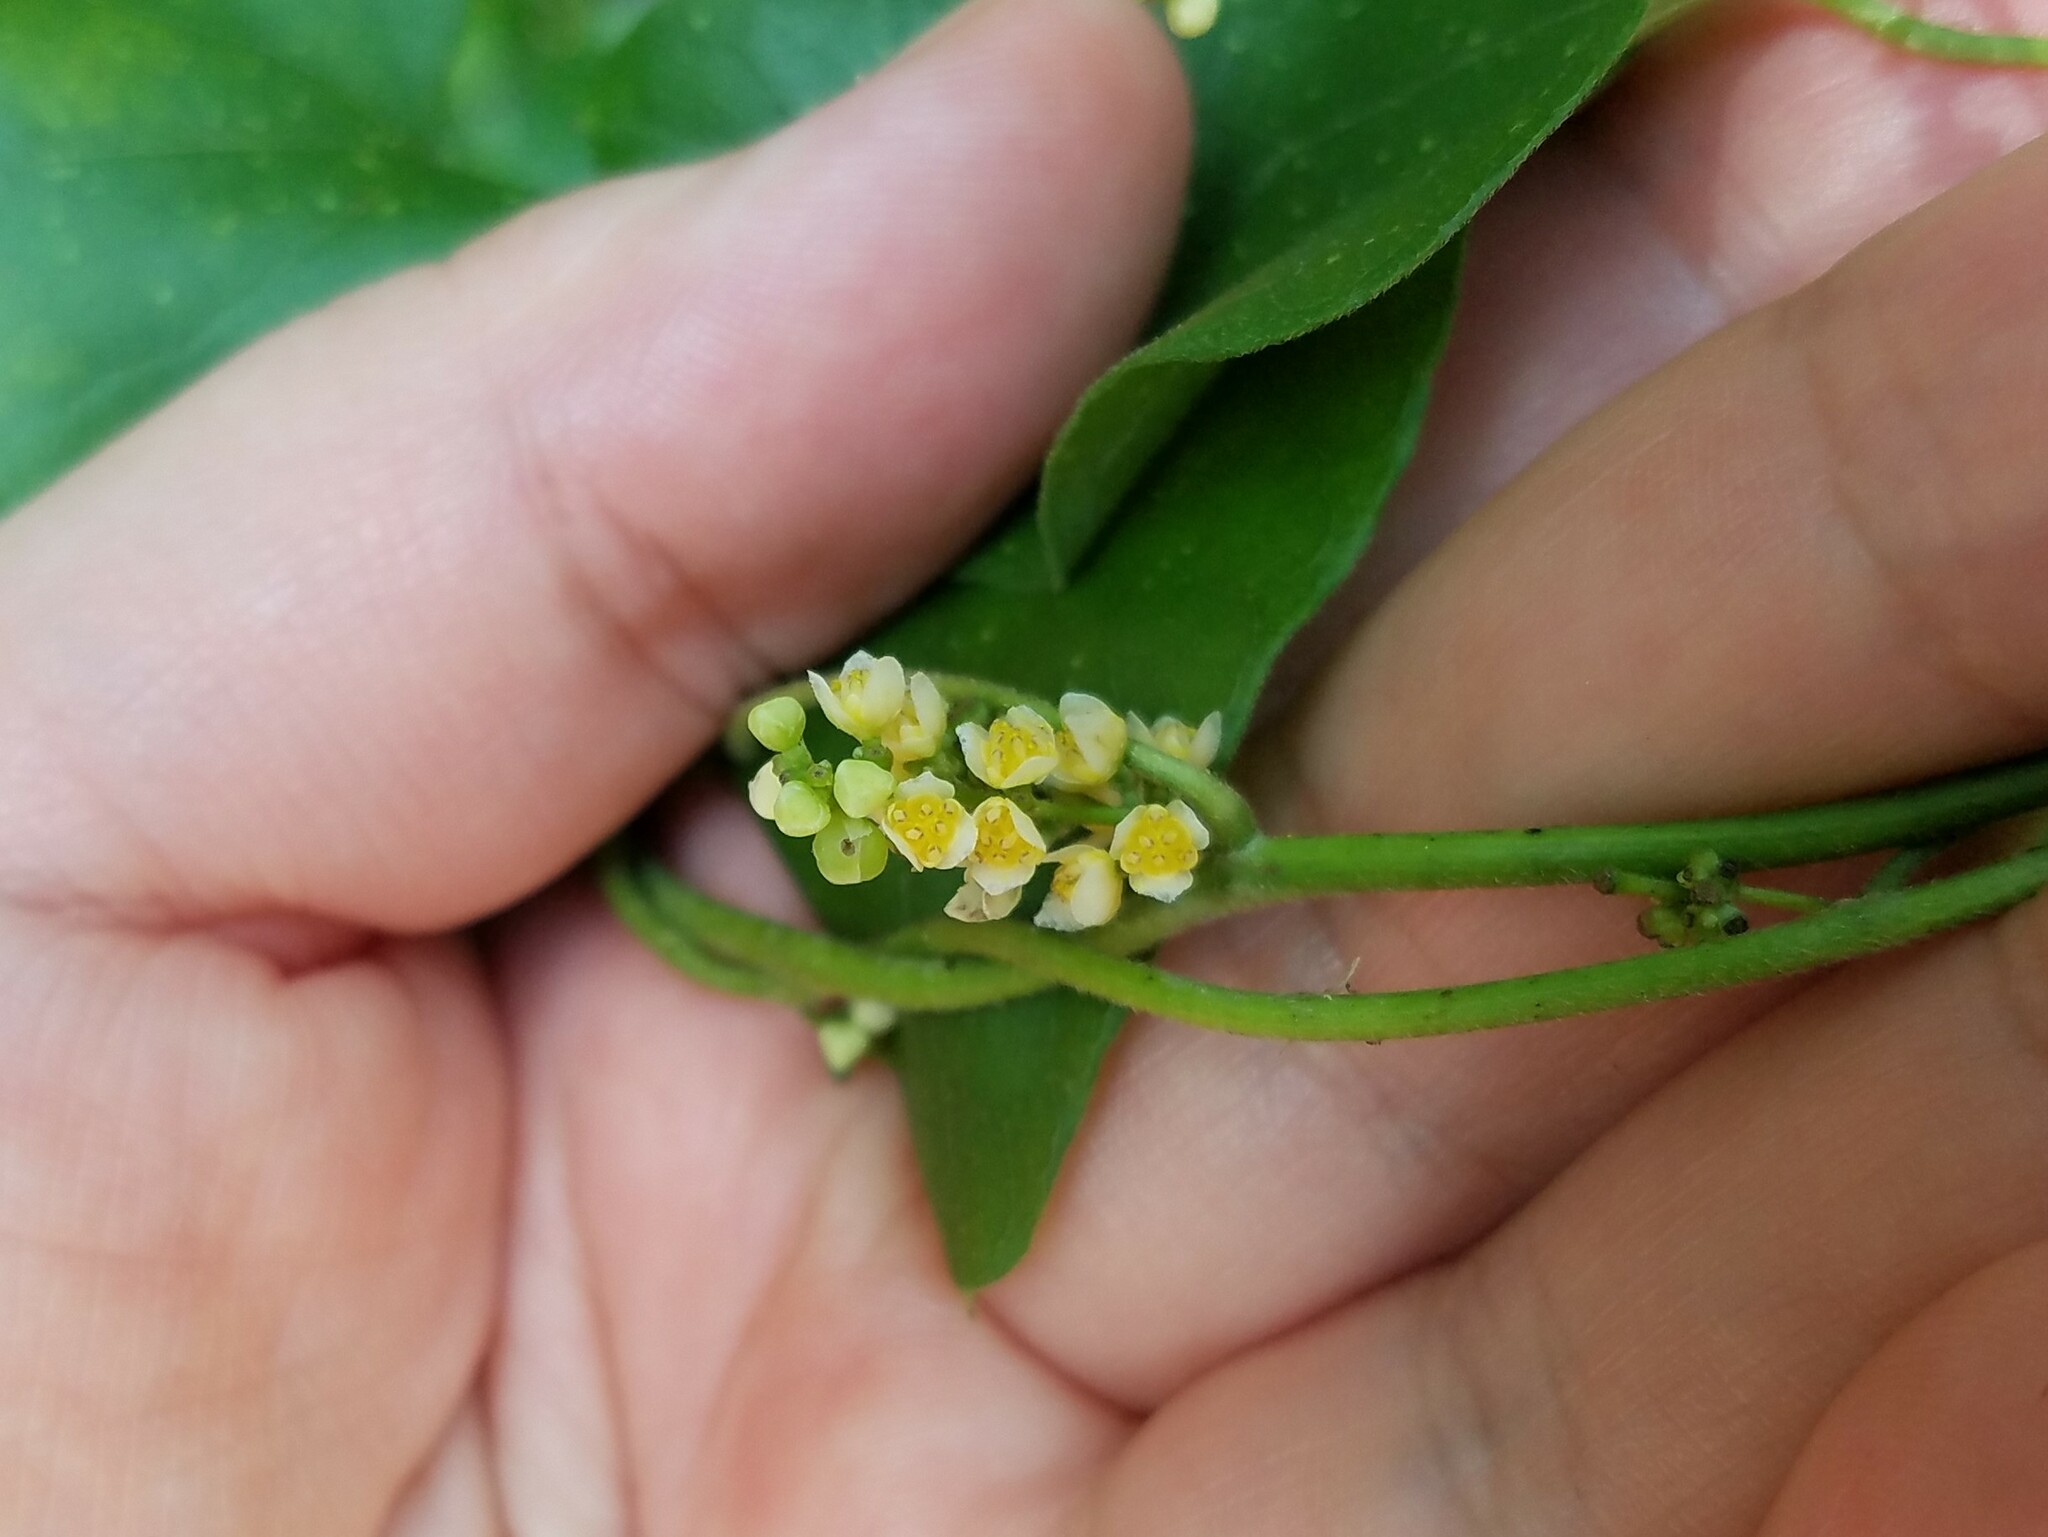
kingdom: Plantae
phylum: Tracheophyta
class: Magnoliopsida
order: Ranunculales
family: Menispermaceae
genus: Cocculus
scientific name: Cocculus carolinus
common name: Carolina moonseed
